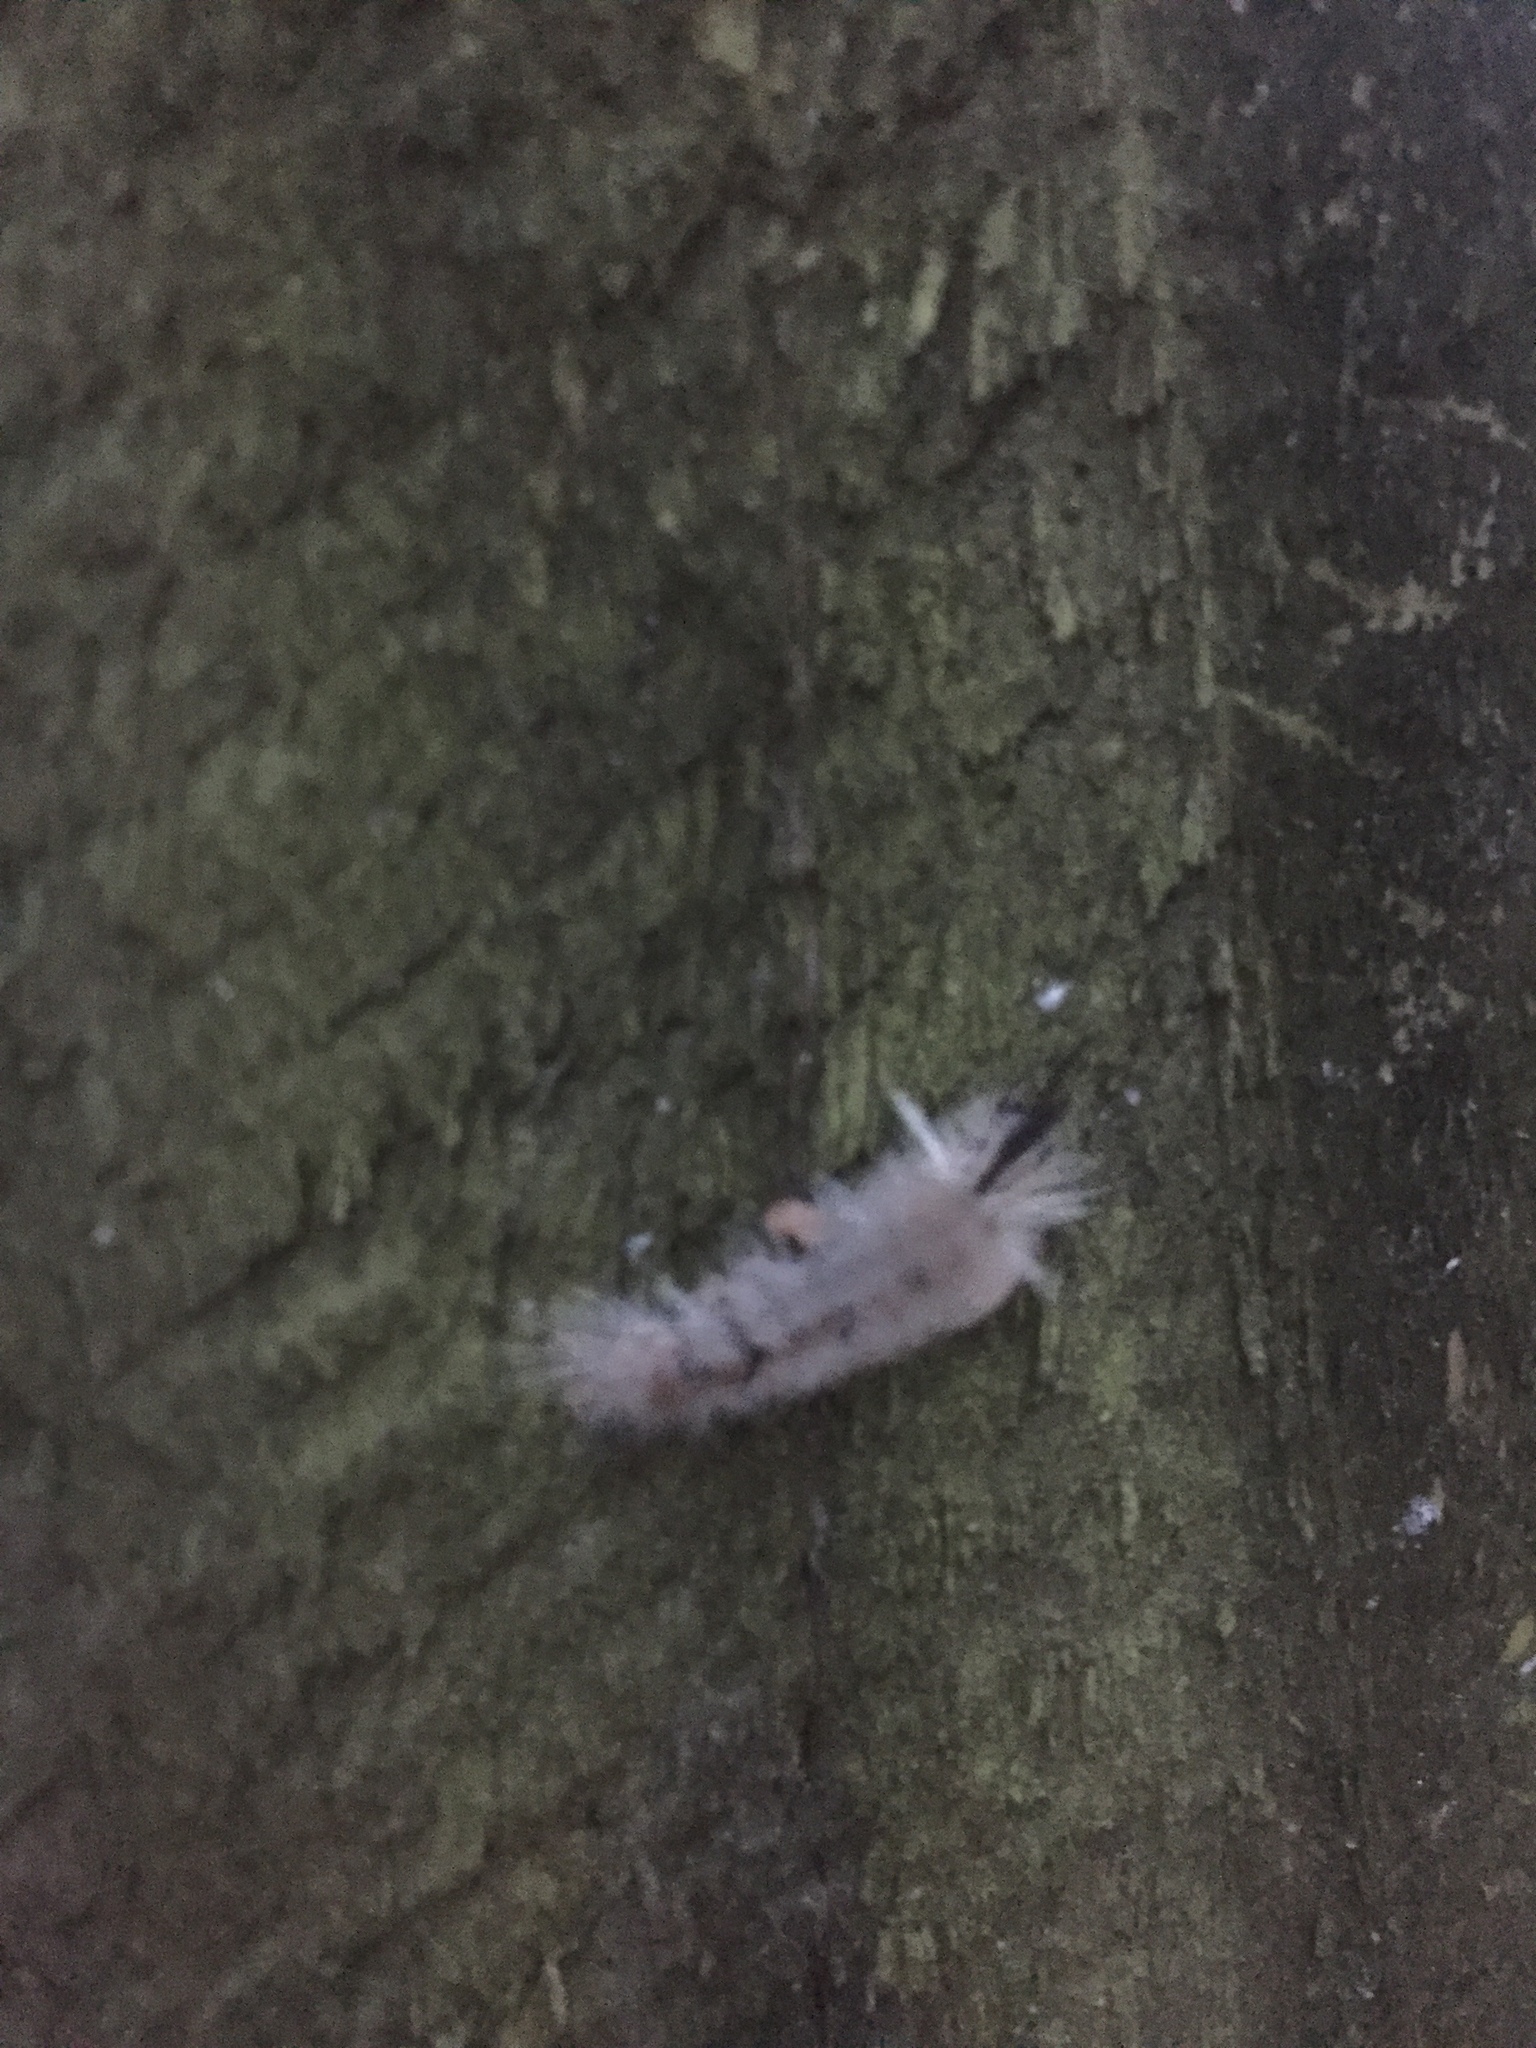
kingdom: Animalia
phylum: Arthropoda
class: Insecta
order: Lepidoptera
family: Erebidae
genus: Halysidota
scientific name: Halysidota tessellaris
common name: Banded tussock moth
